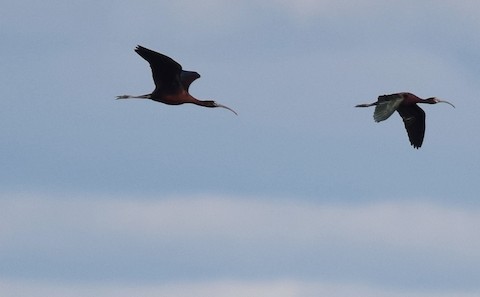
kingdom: Animalia
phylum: Chordata
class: Aves
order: Pelecaniformes
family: Threskiornithidae
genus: Plegadis
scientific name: Plegadis falcinellus
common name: Glossy ibis
